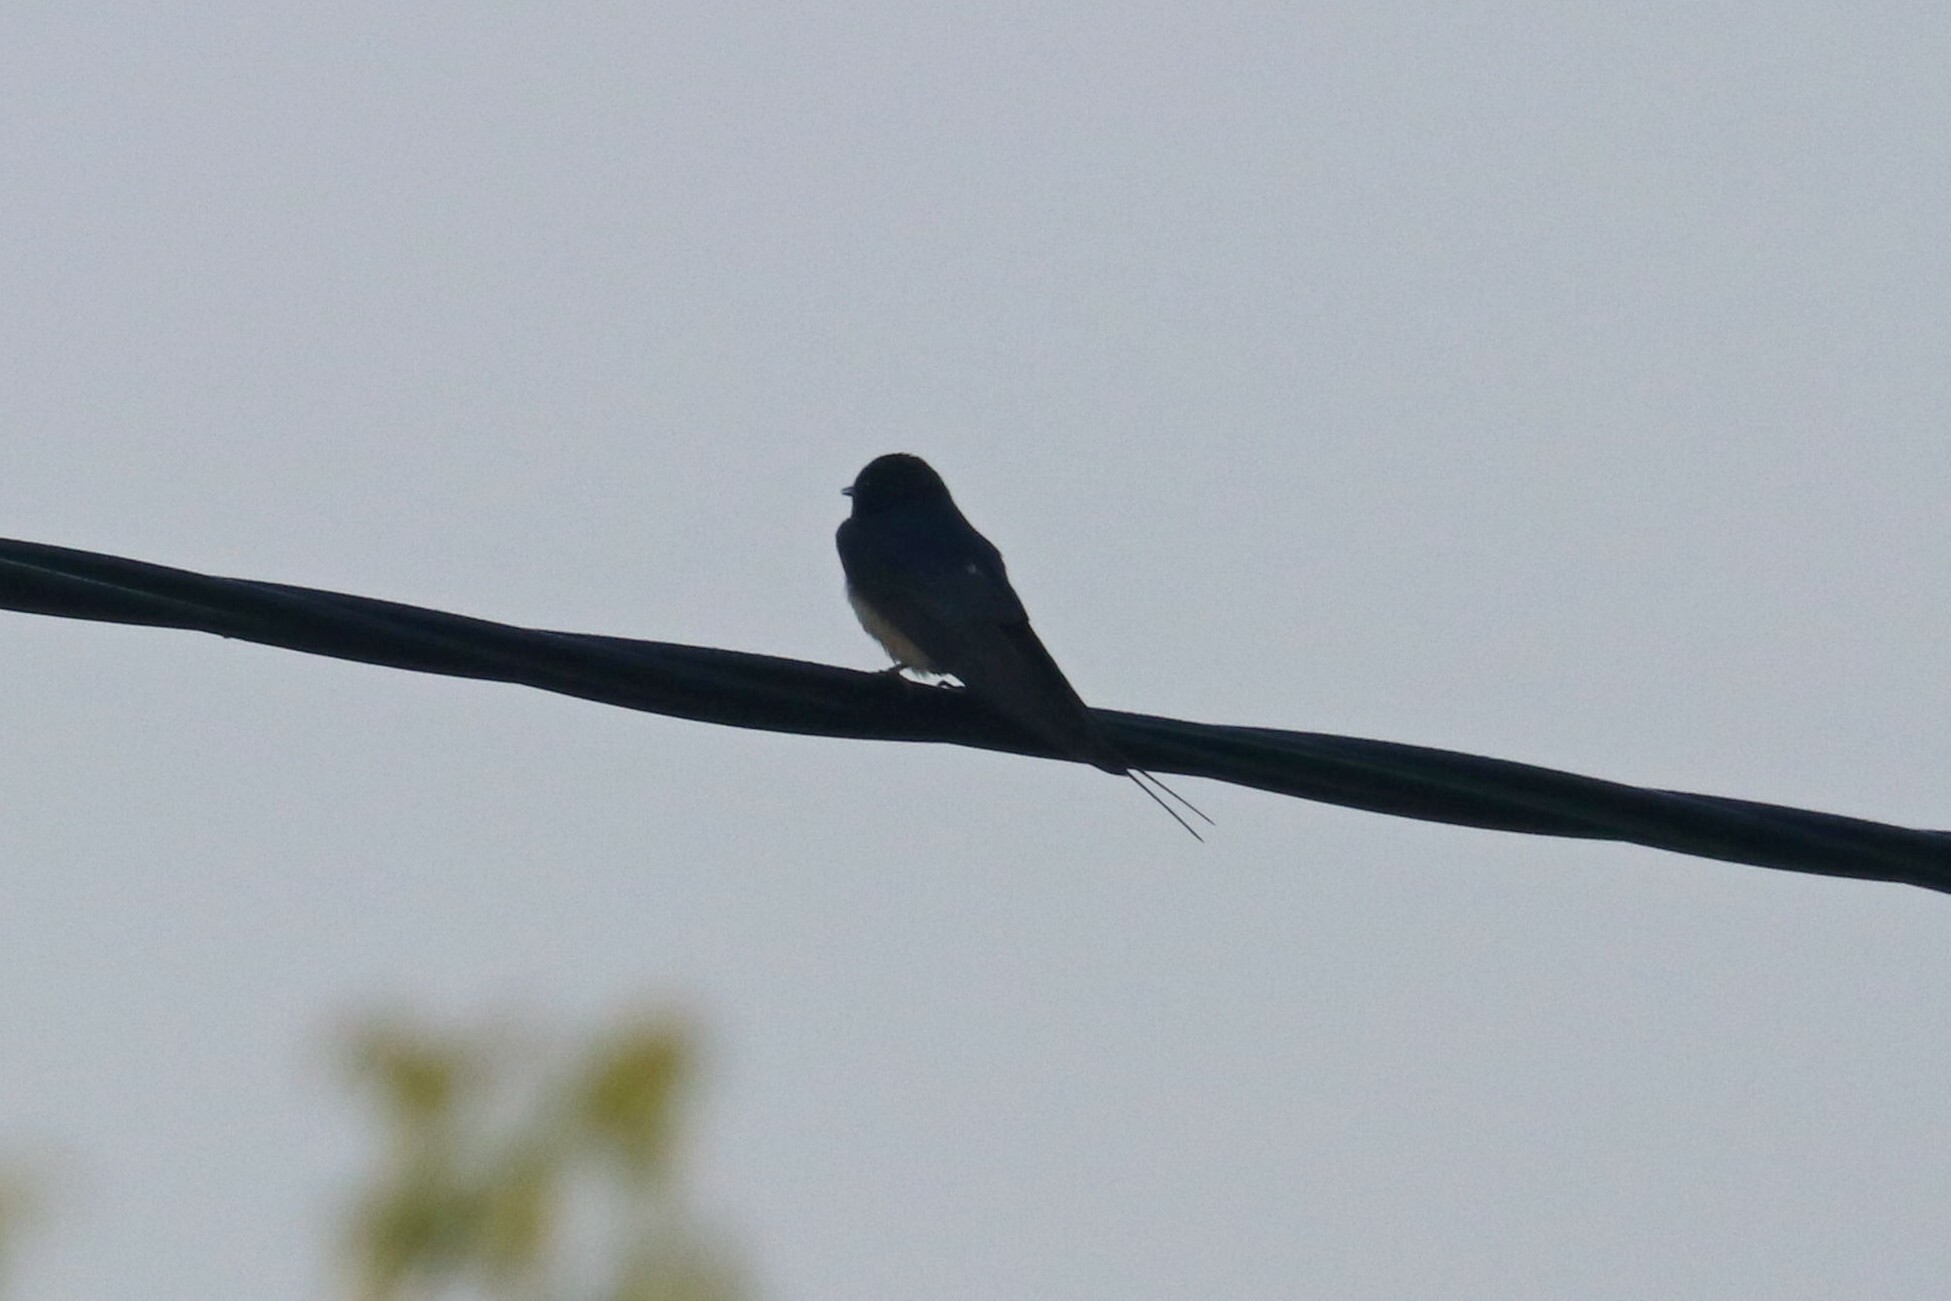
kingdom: Animalia
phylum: Chordata
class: Aves
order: Passeriformes
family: Hirundinidae
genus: Hirundo
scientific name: Hirundo rustica
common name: Barn swallow
